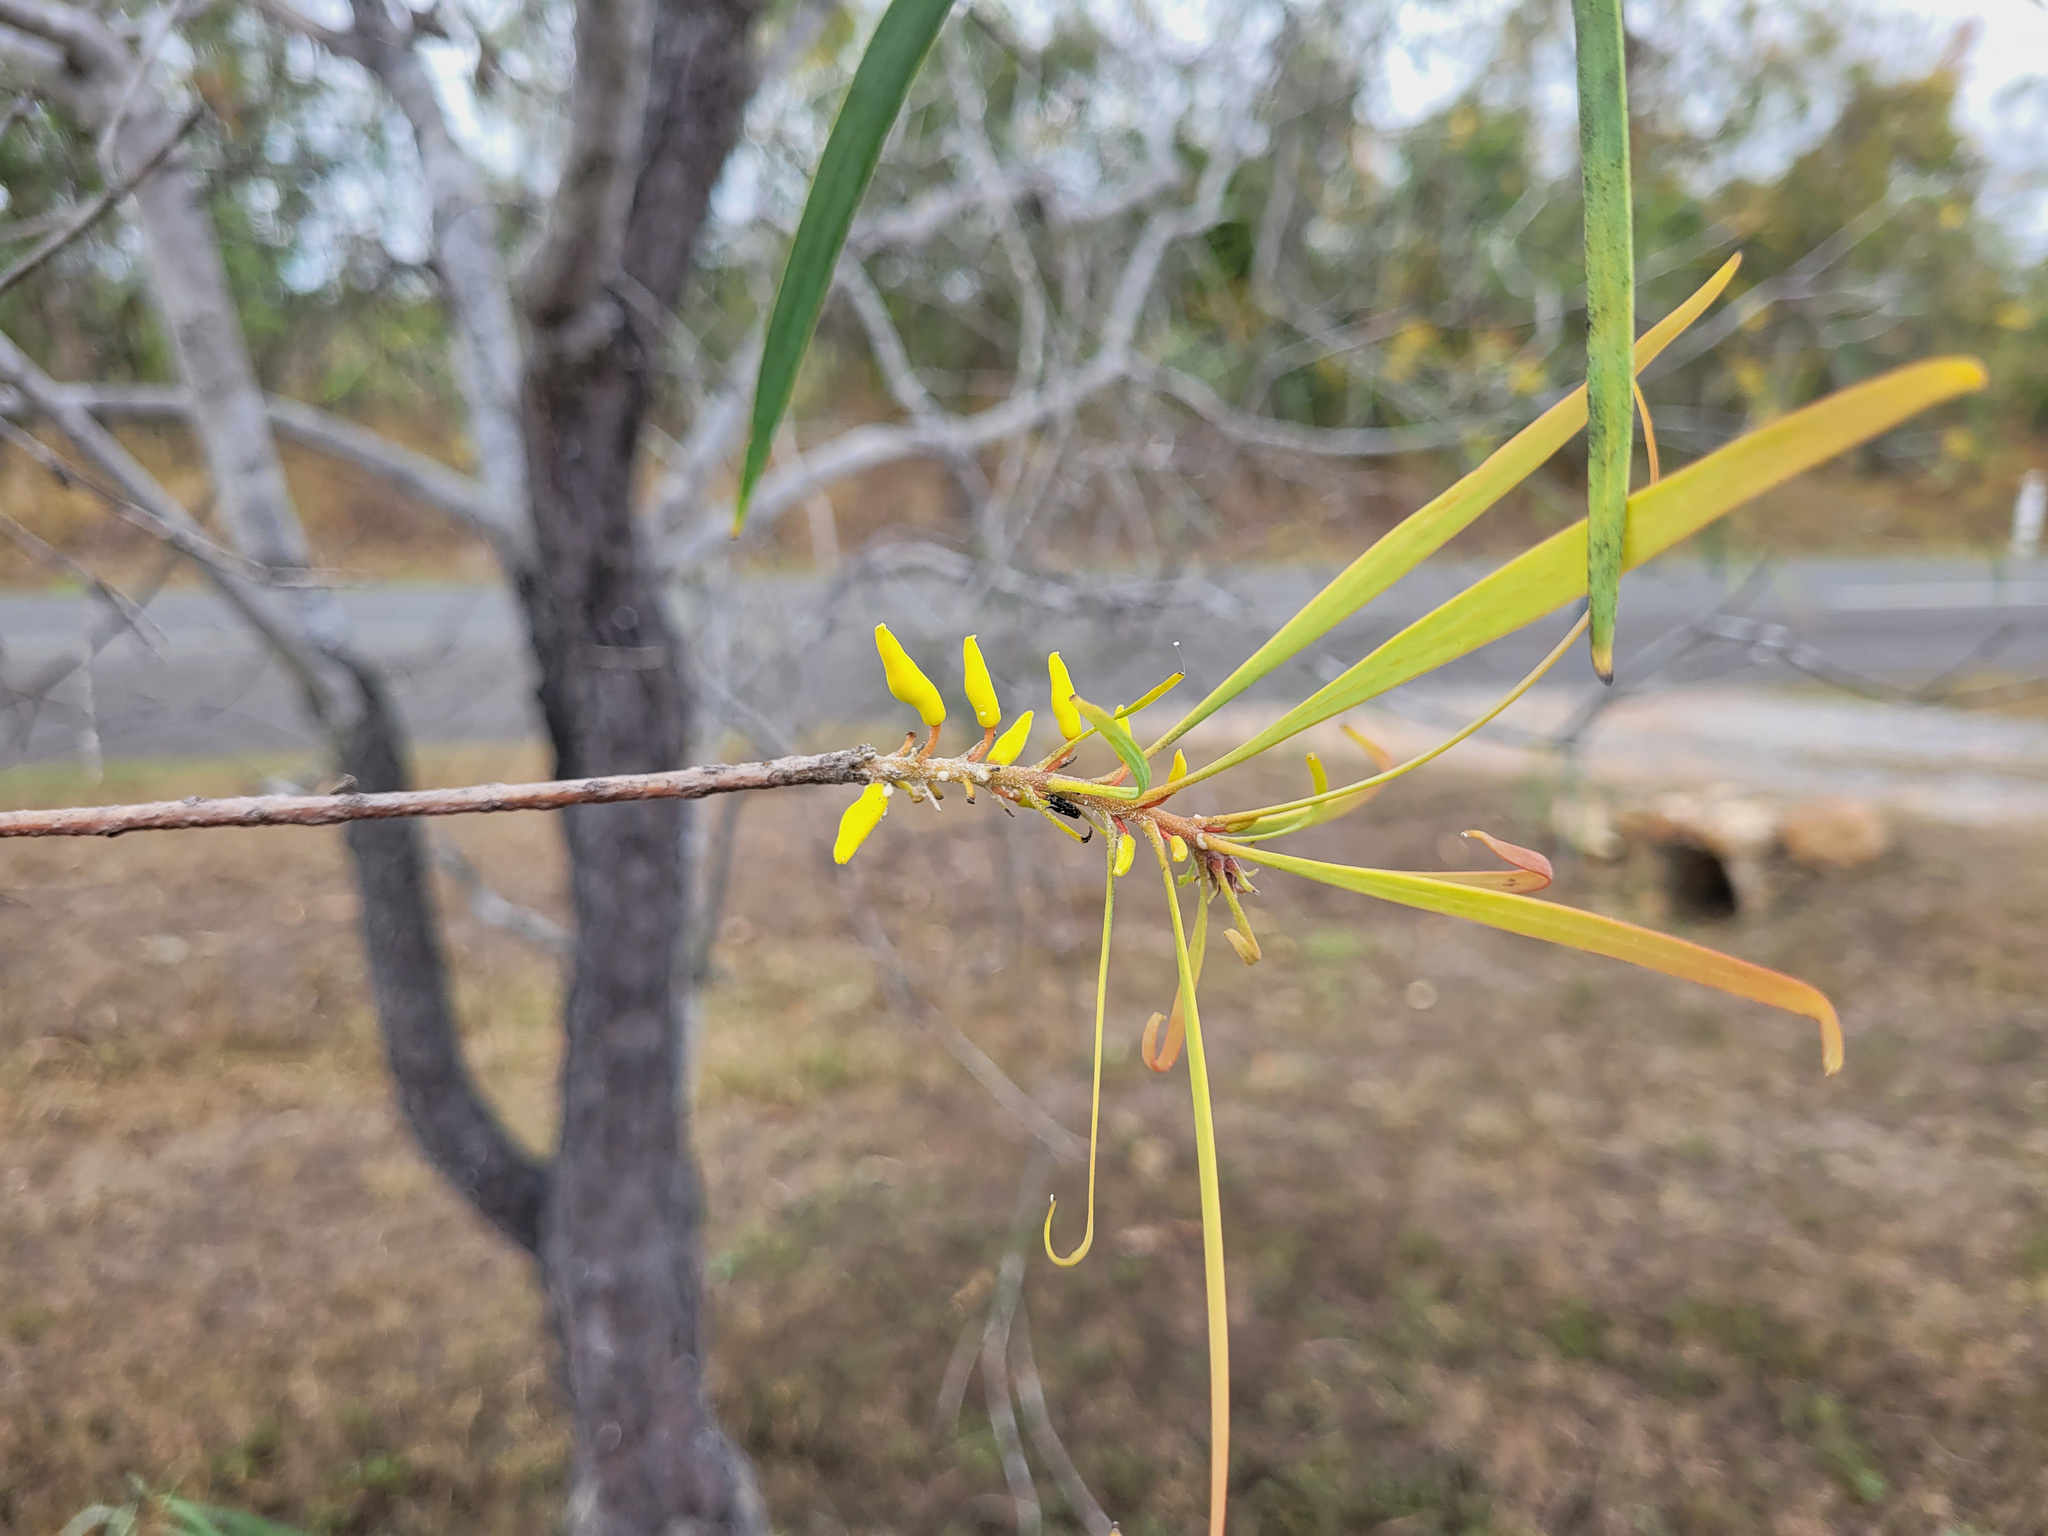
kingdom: Plantae
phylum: Tracheophyta
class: Magnoliopsida
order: Proteales
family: Proteaceae
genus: Persoonia
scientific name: Persoonia falcata
